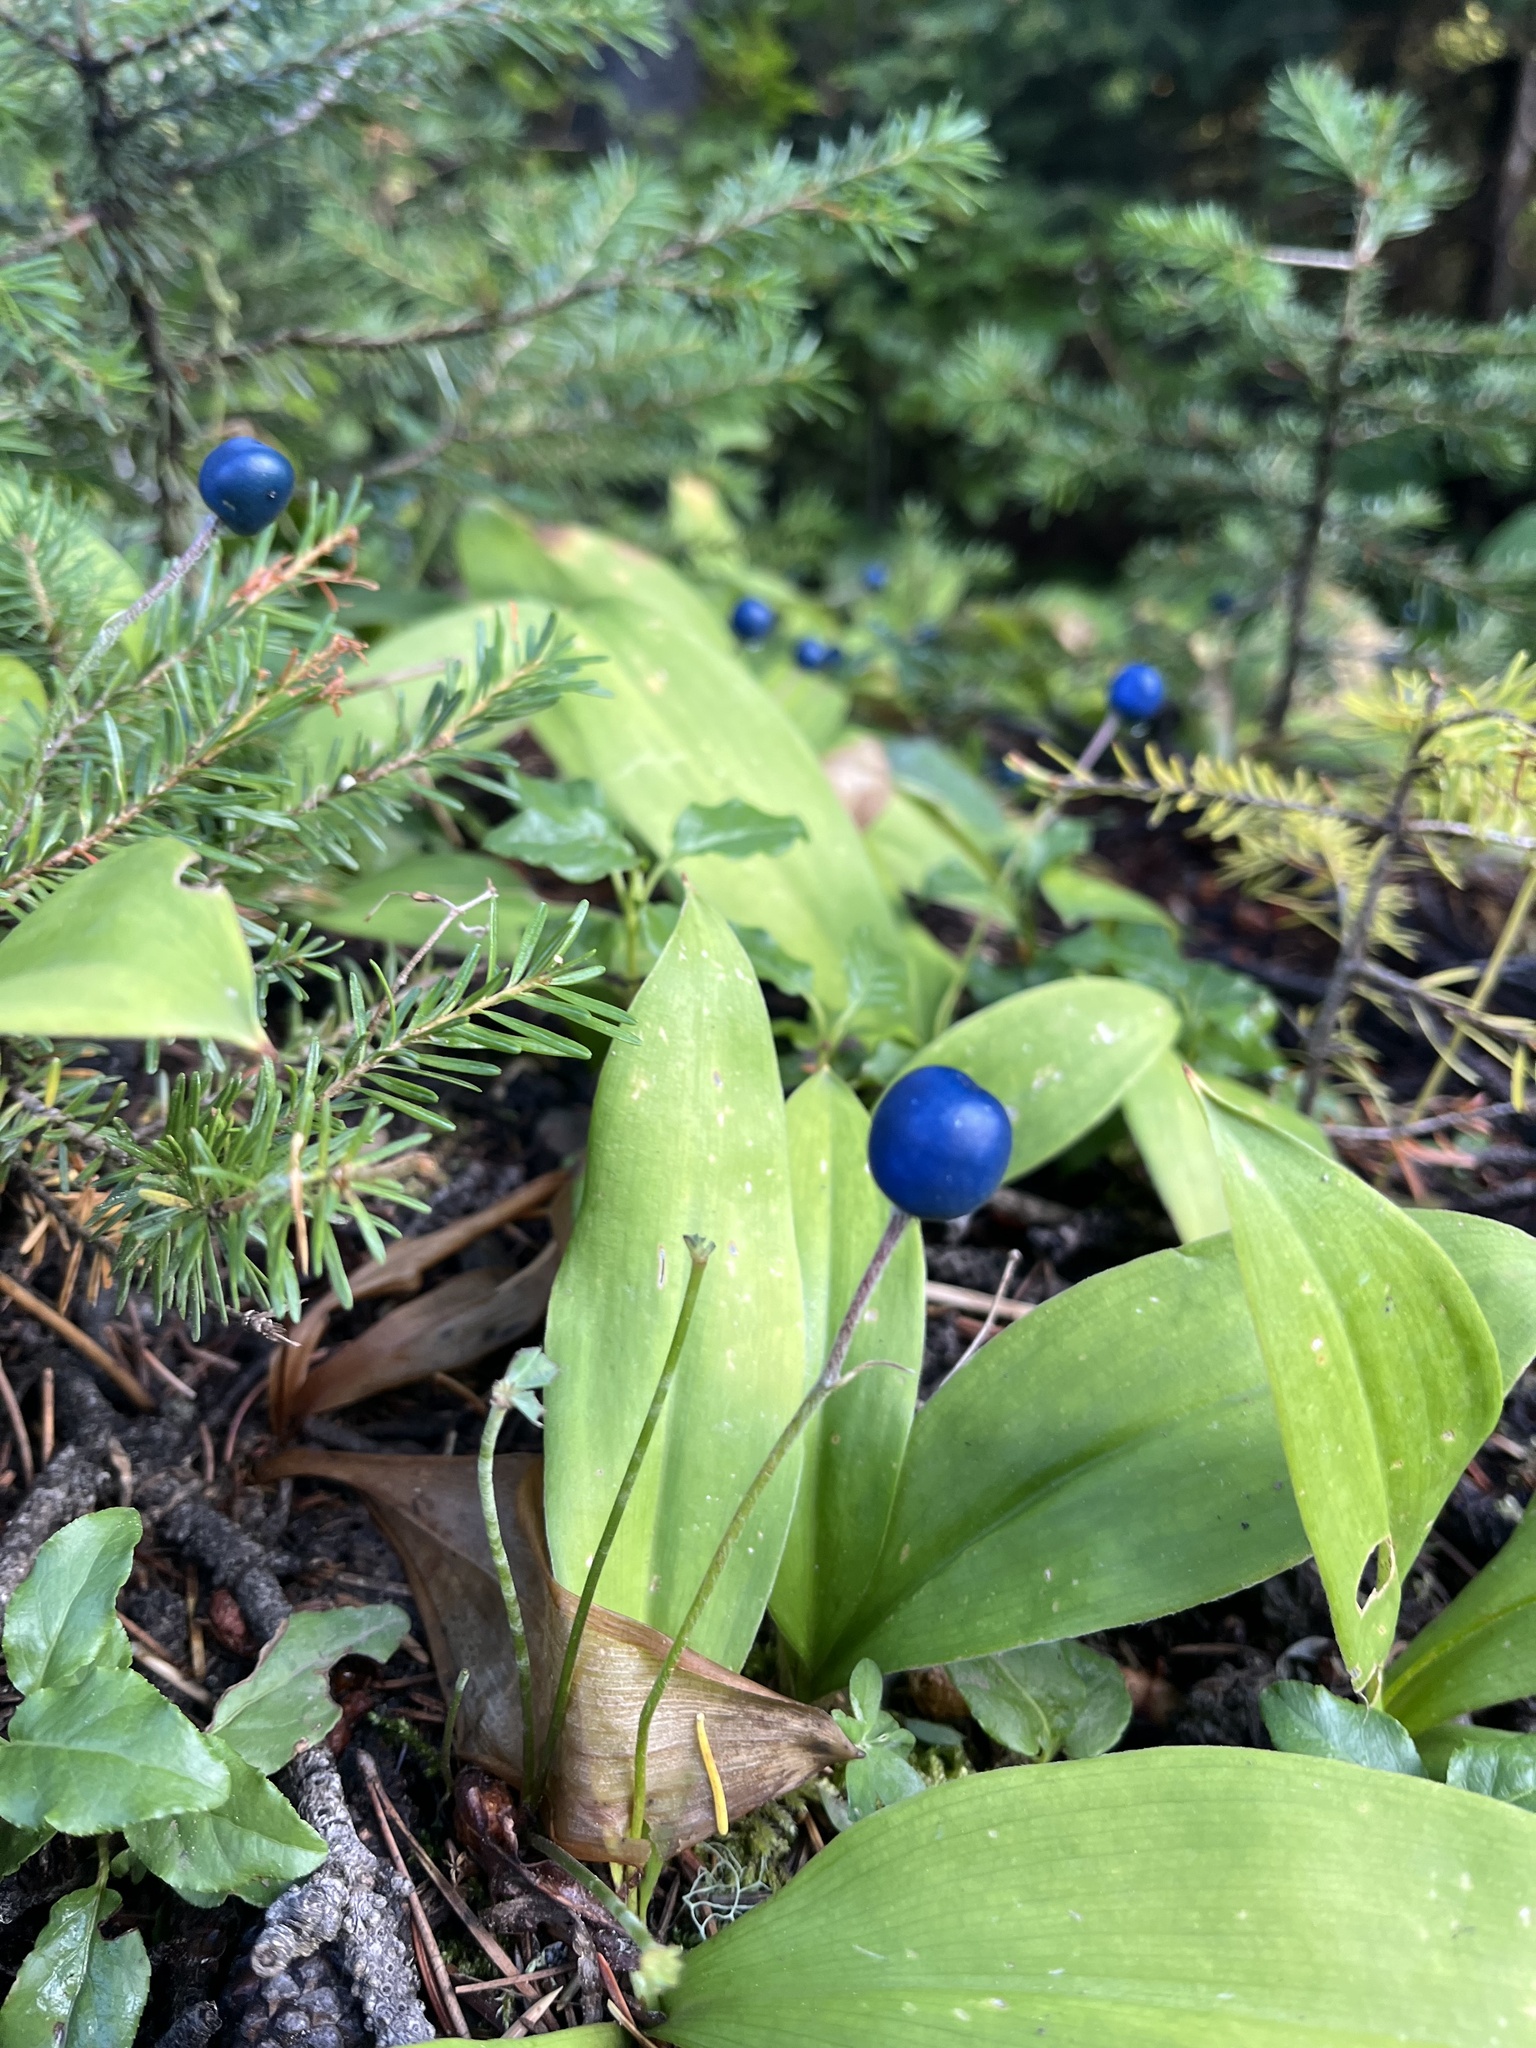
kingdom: Plantae
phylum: Tracheophyta
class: Liliopsida
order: Liliales
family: Liliaceae
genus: Clintonia
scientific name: Clintonia uniflora
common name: Queen's cup
